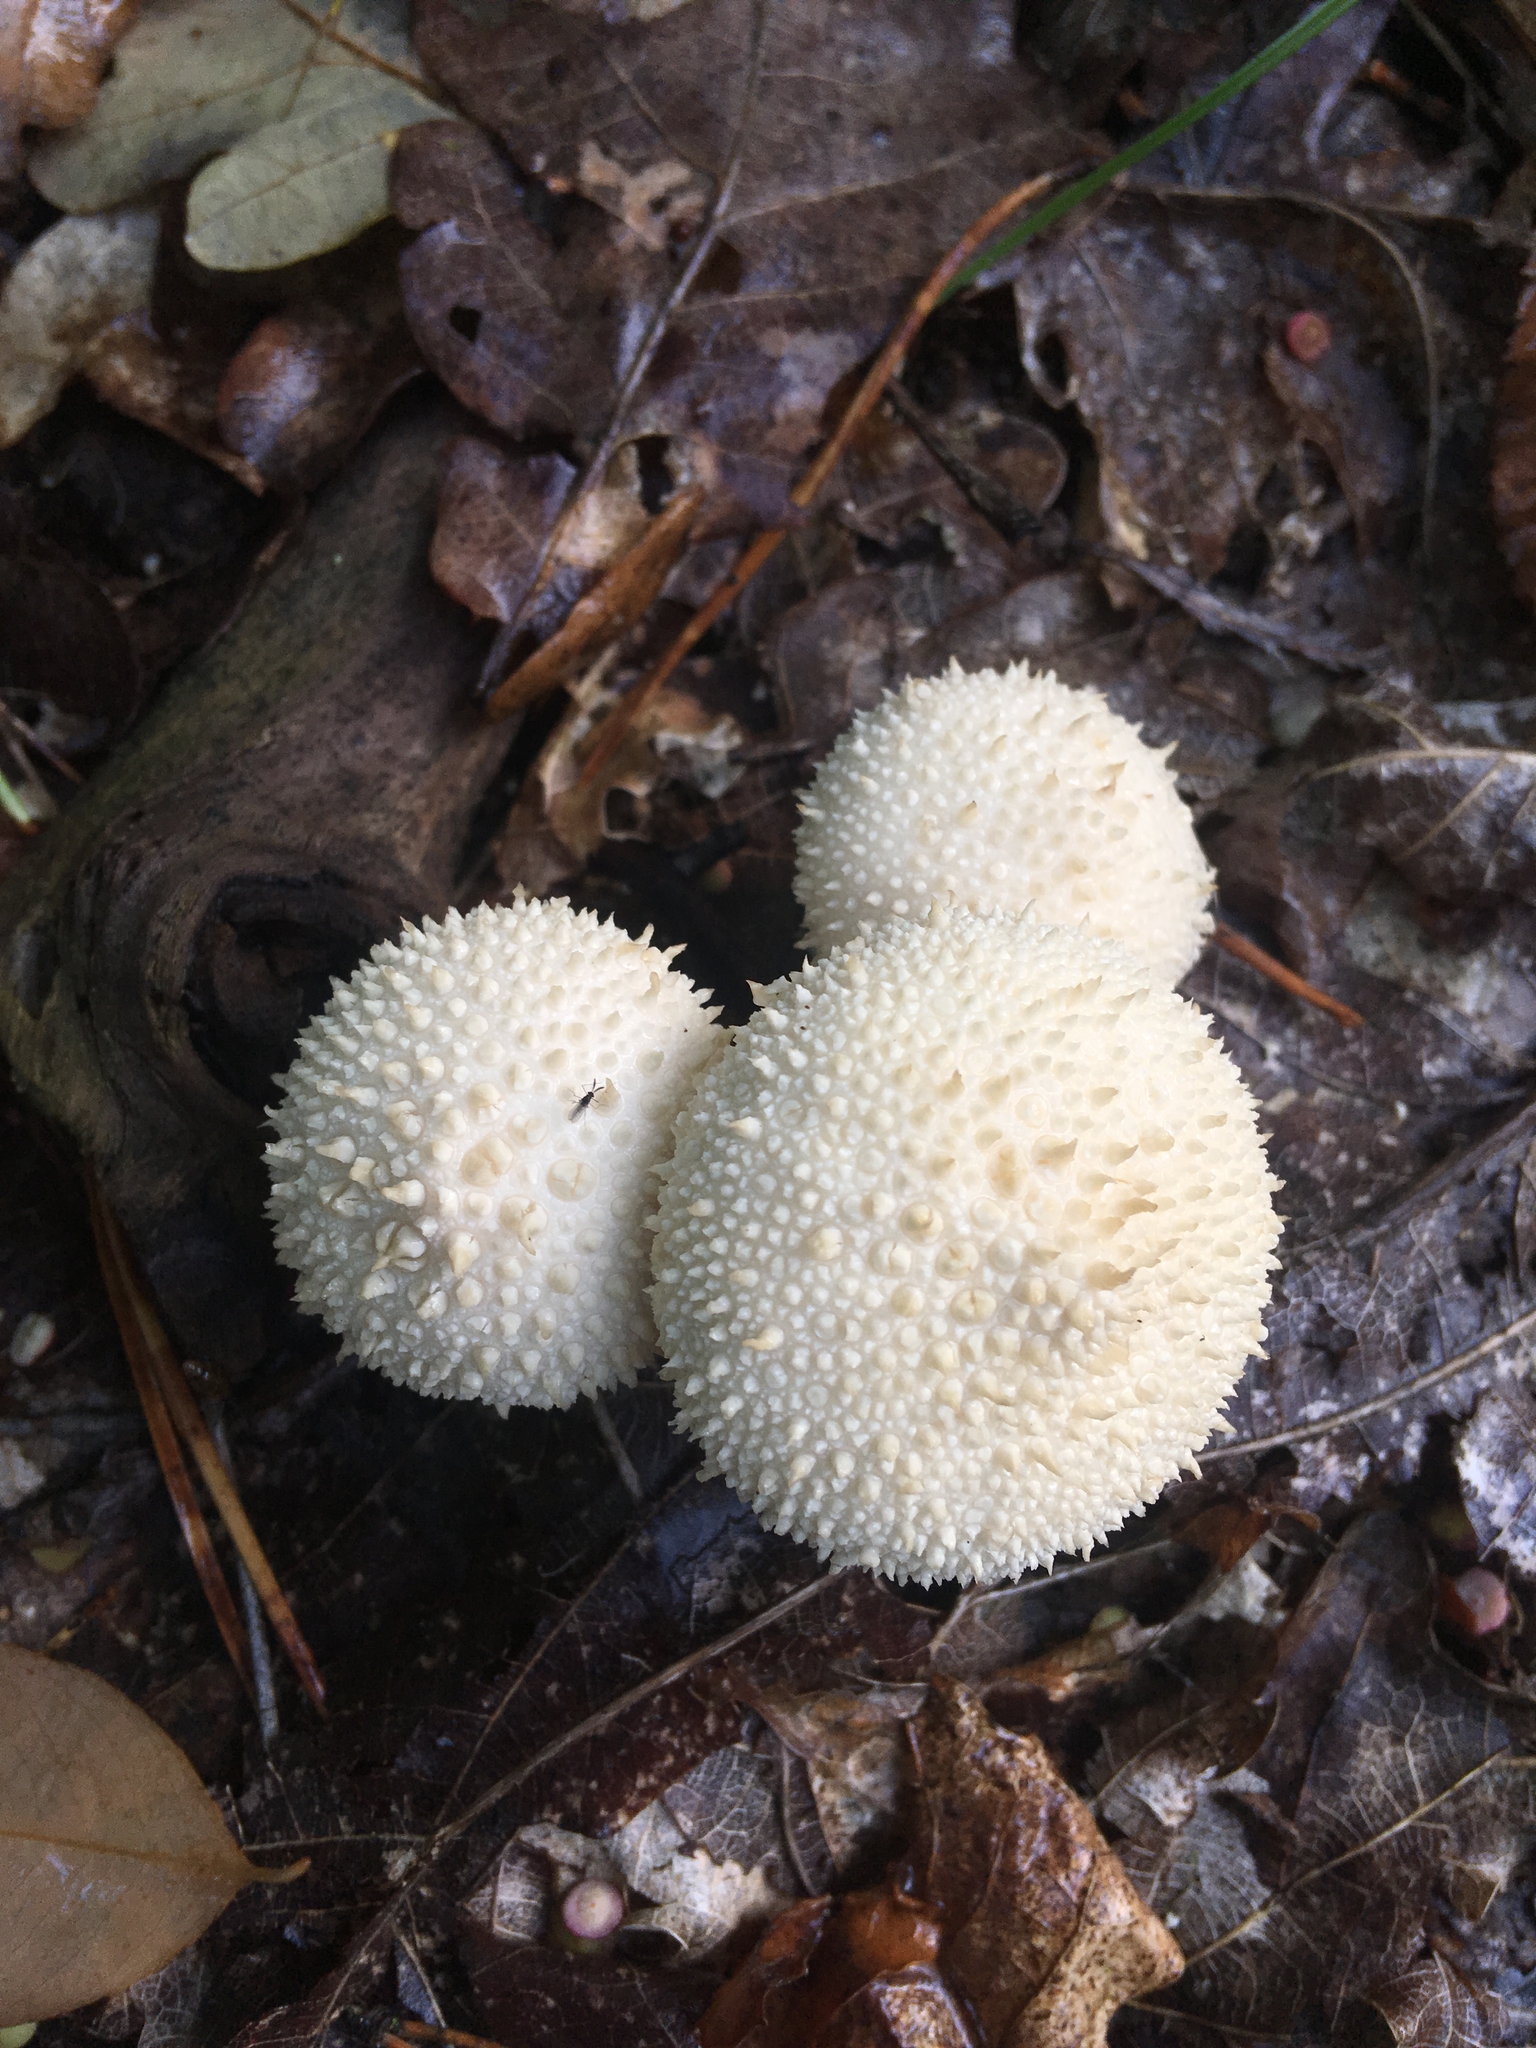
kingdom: Fungi
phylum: Basidiomycota
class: Agaricomycetes
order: Agaricales
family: Lycoperdaceae
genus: Lycoperdon
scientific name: Lycoperdon perlatum
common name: Common puffball
